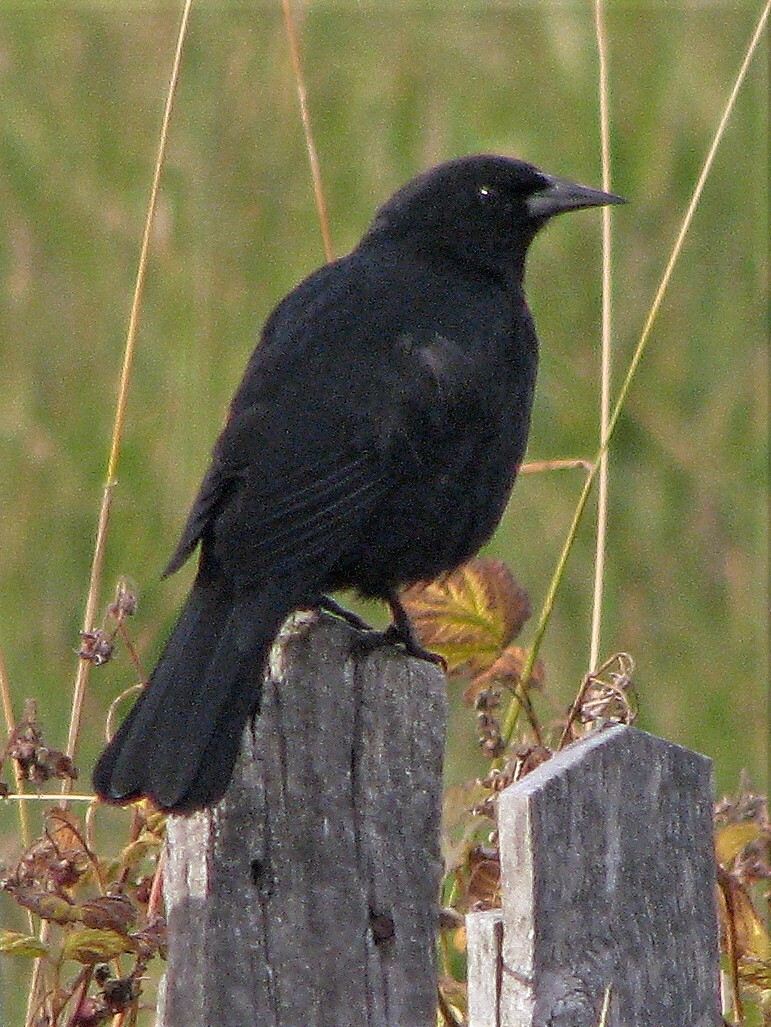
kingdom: Animalia
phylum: Chordata
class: Aves
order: Passeriformes
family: Icteridae
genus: Curaeus
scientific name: Curaeus curaeus
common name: Austral blackbird
